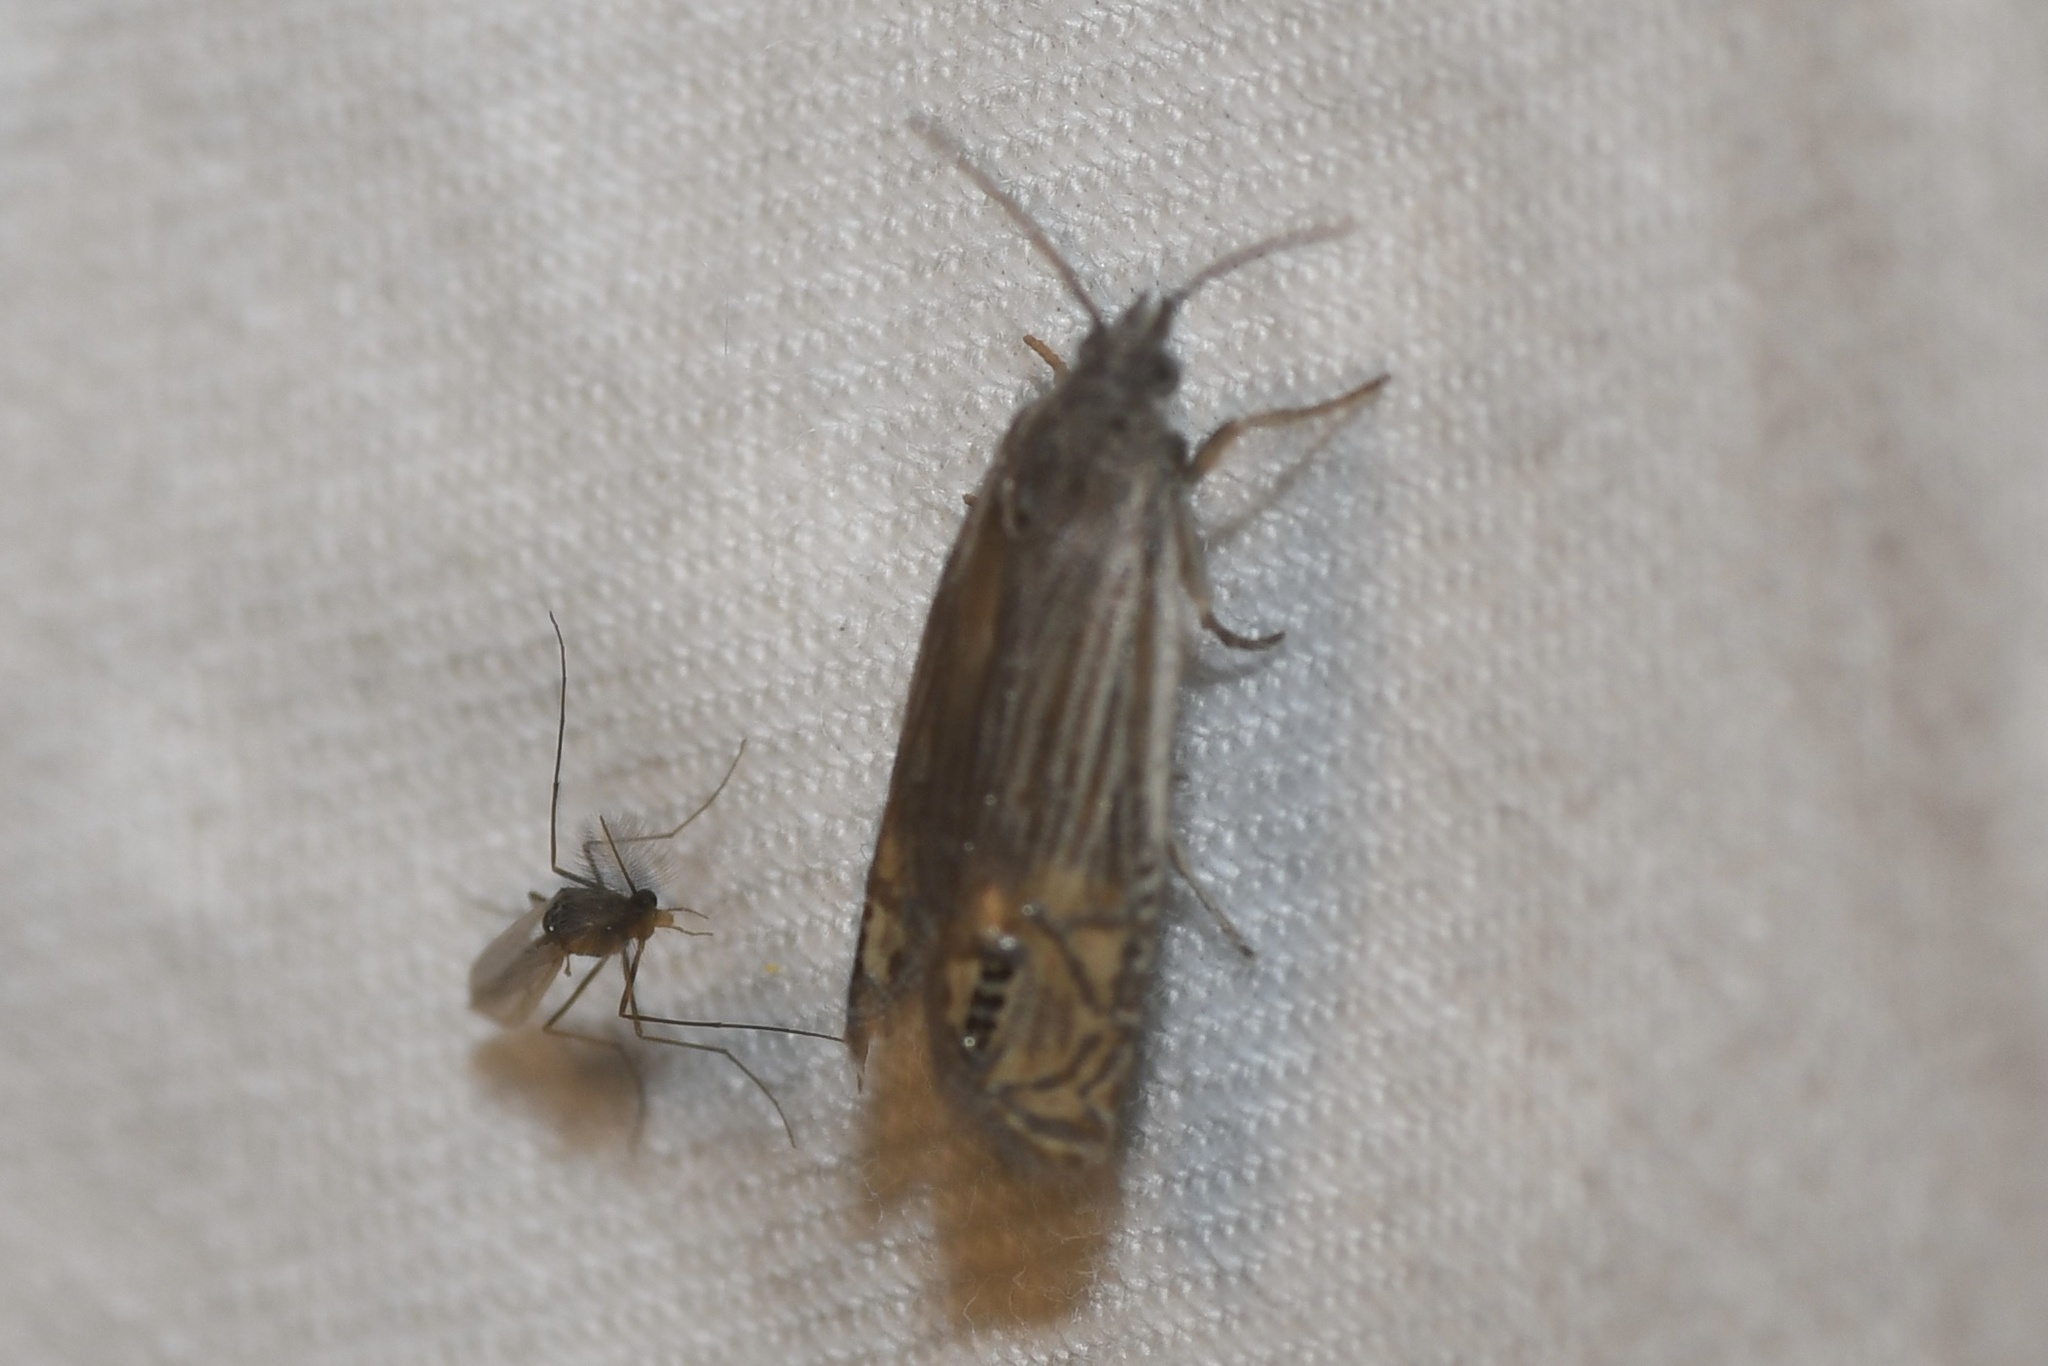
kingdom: Animalia
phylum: Arthropoda
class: Insecta
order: Lepidoptera
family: Tortricidae
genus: Eucosma
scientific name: Eucosma verna
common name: Speckled phaneta moth
